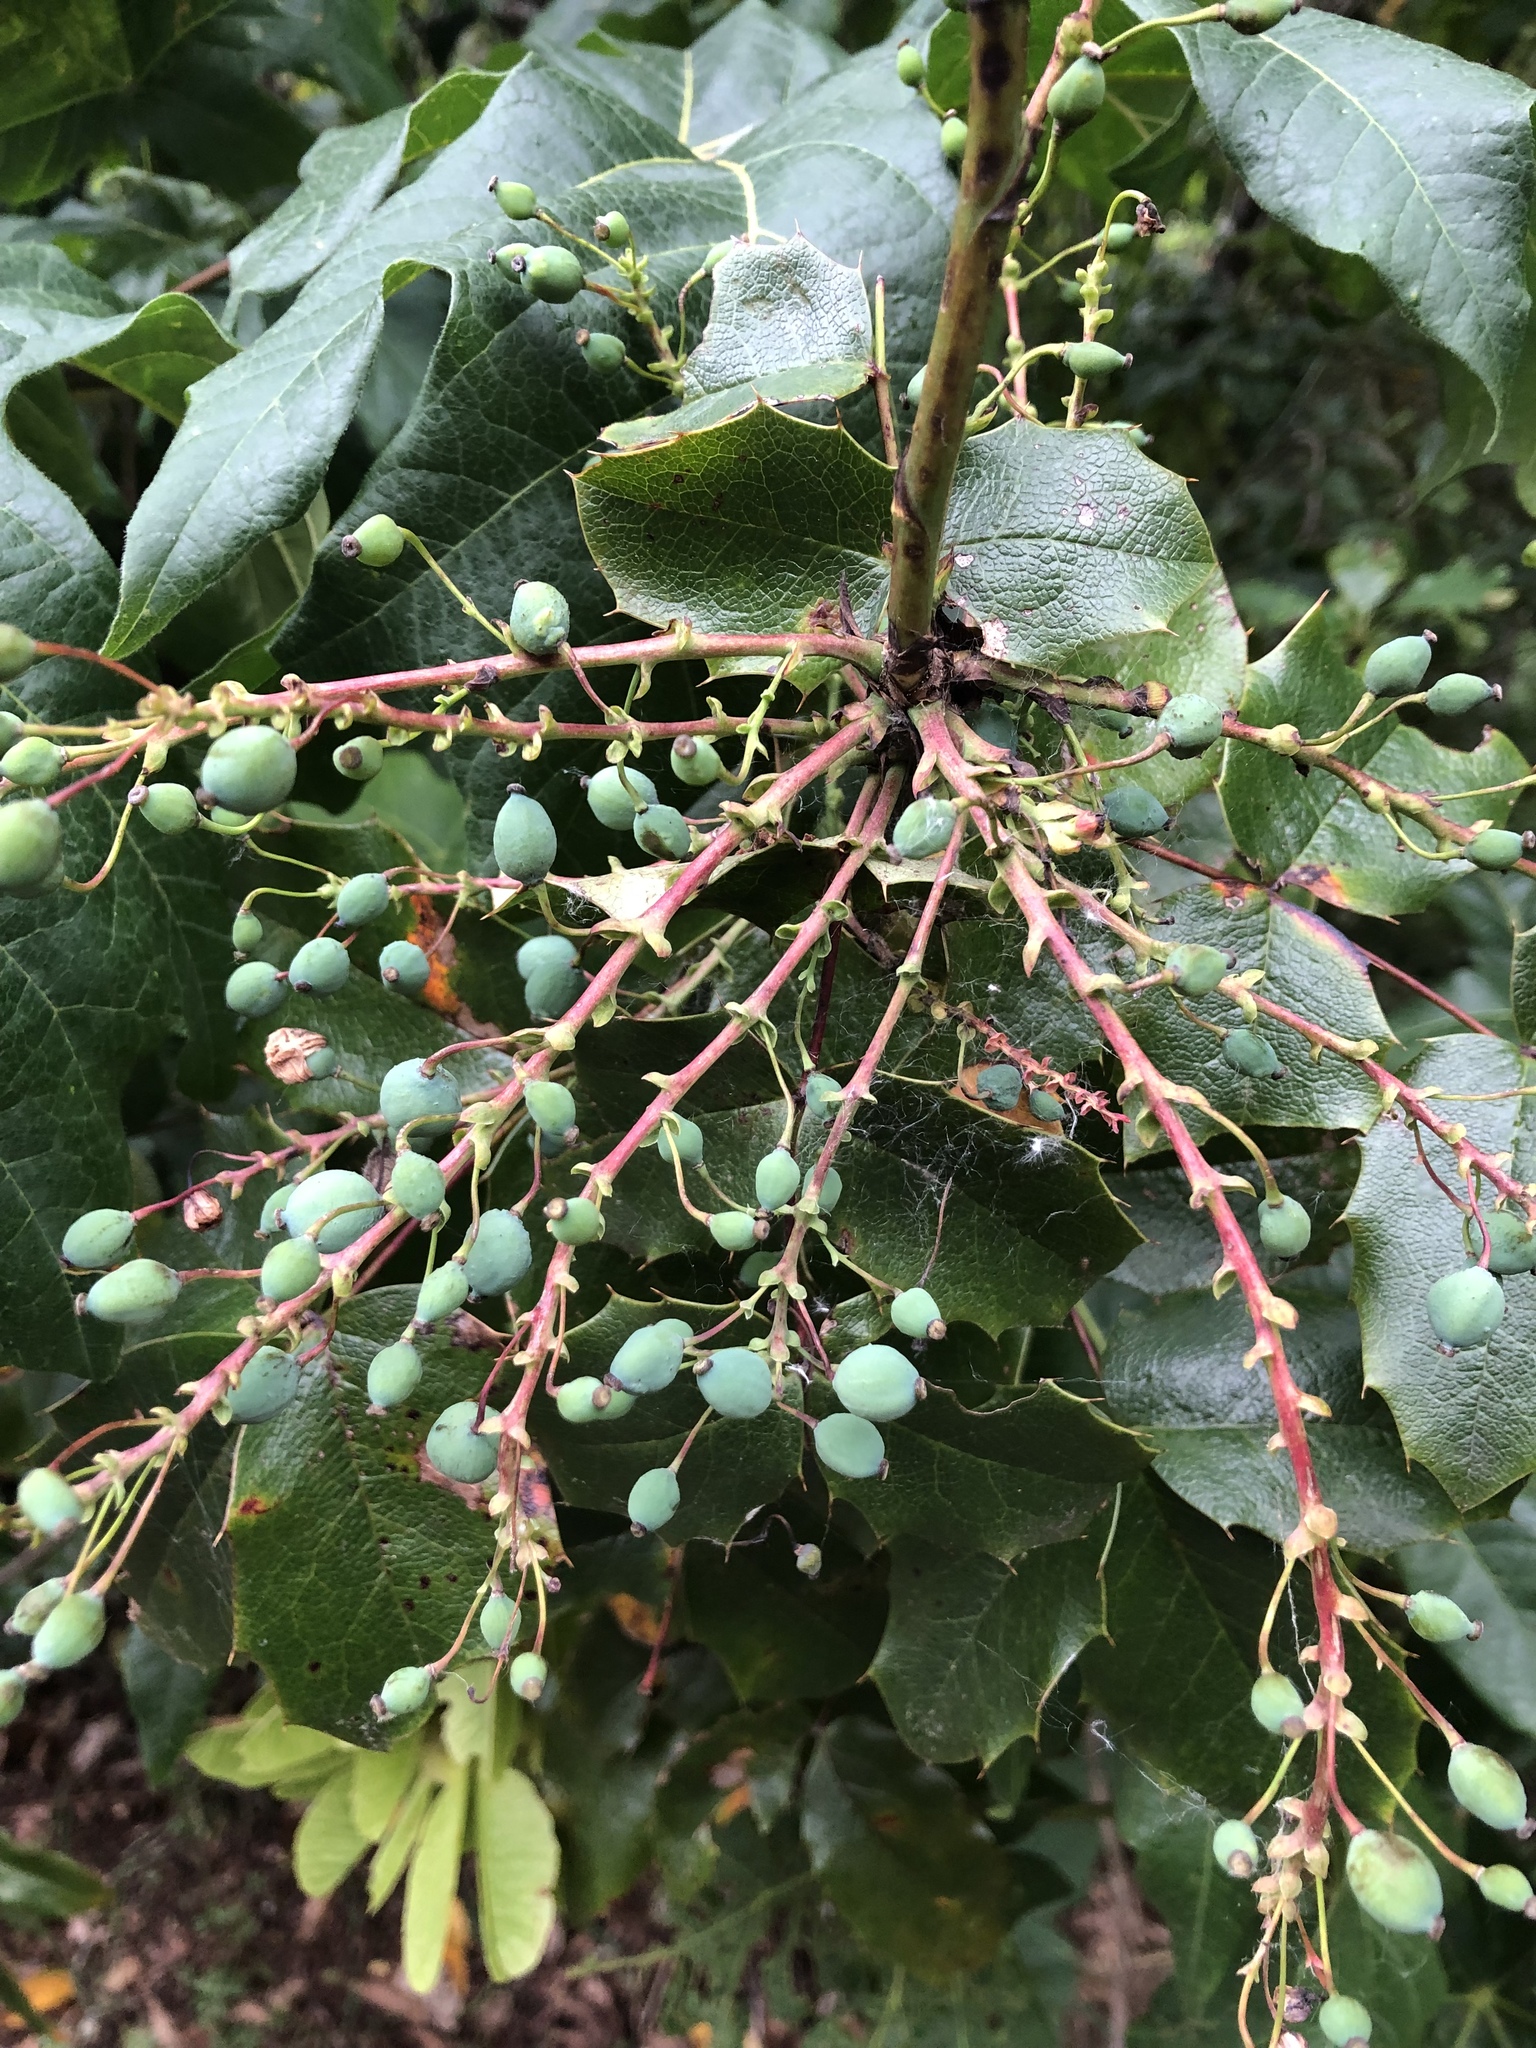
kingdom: Plantae
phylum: Tracheophyta
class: Magnoliopsida
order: Ranunculales
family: Berberidaceae
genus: Mahonia
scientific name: Mahonia aquifolium
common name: Oregon-grape
